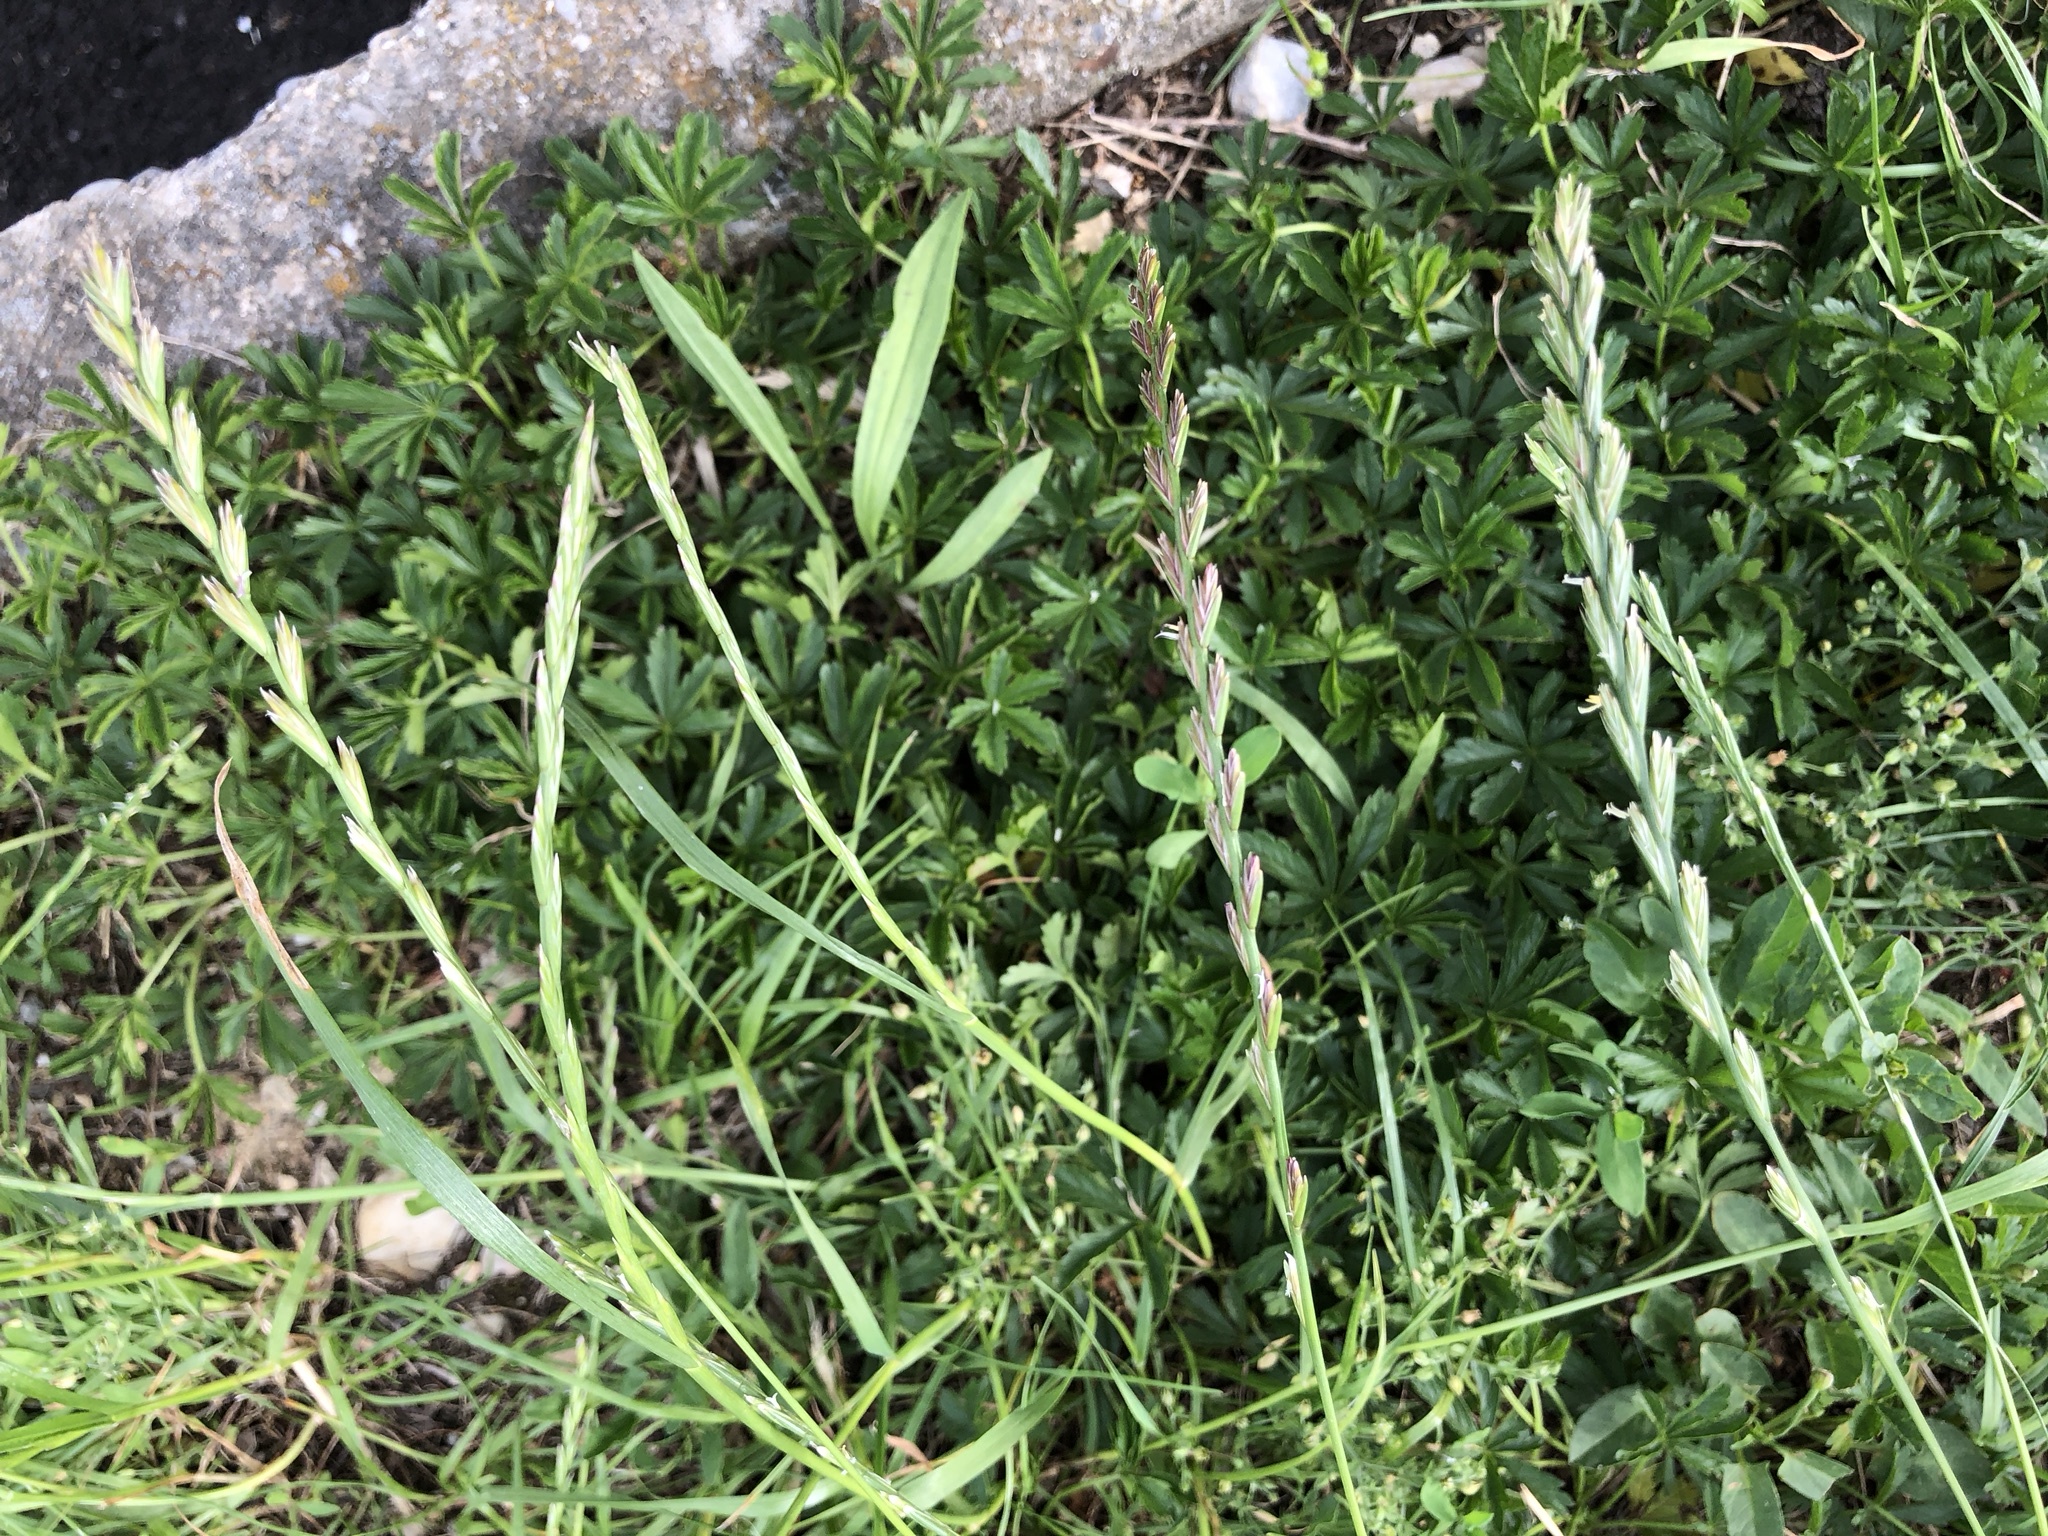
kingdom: Plantae
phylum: Tracheophyta
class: Liliopsida
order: Poales
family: Poaceae
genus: Lolium
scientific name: Lolium perenne
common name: Perennial ryegrass
